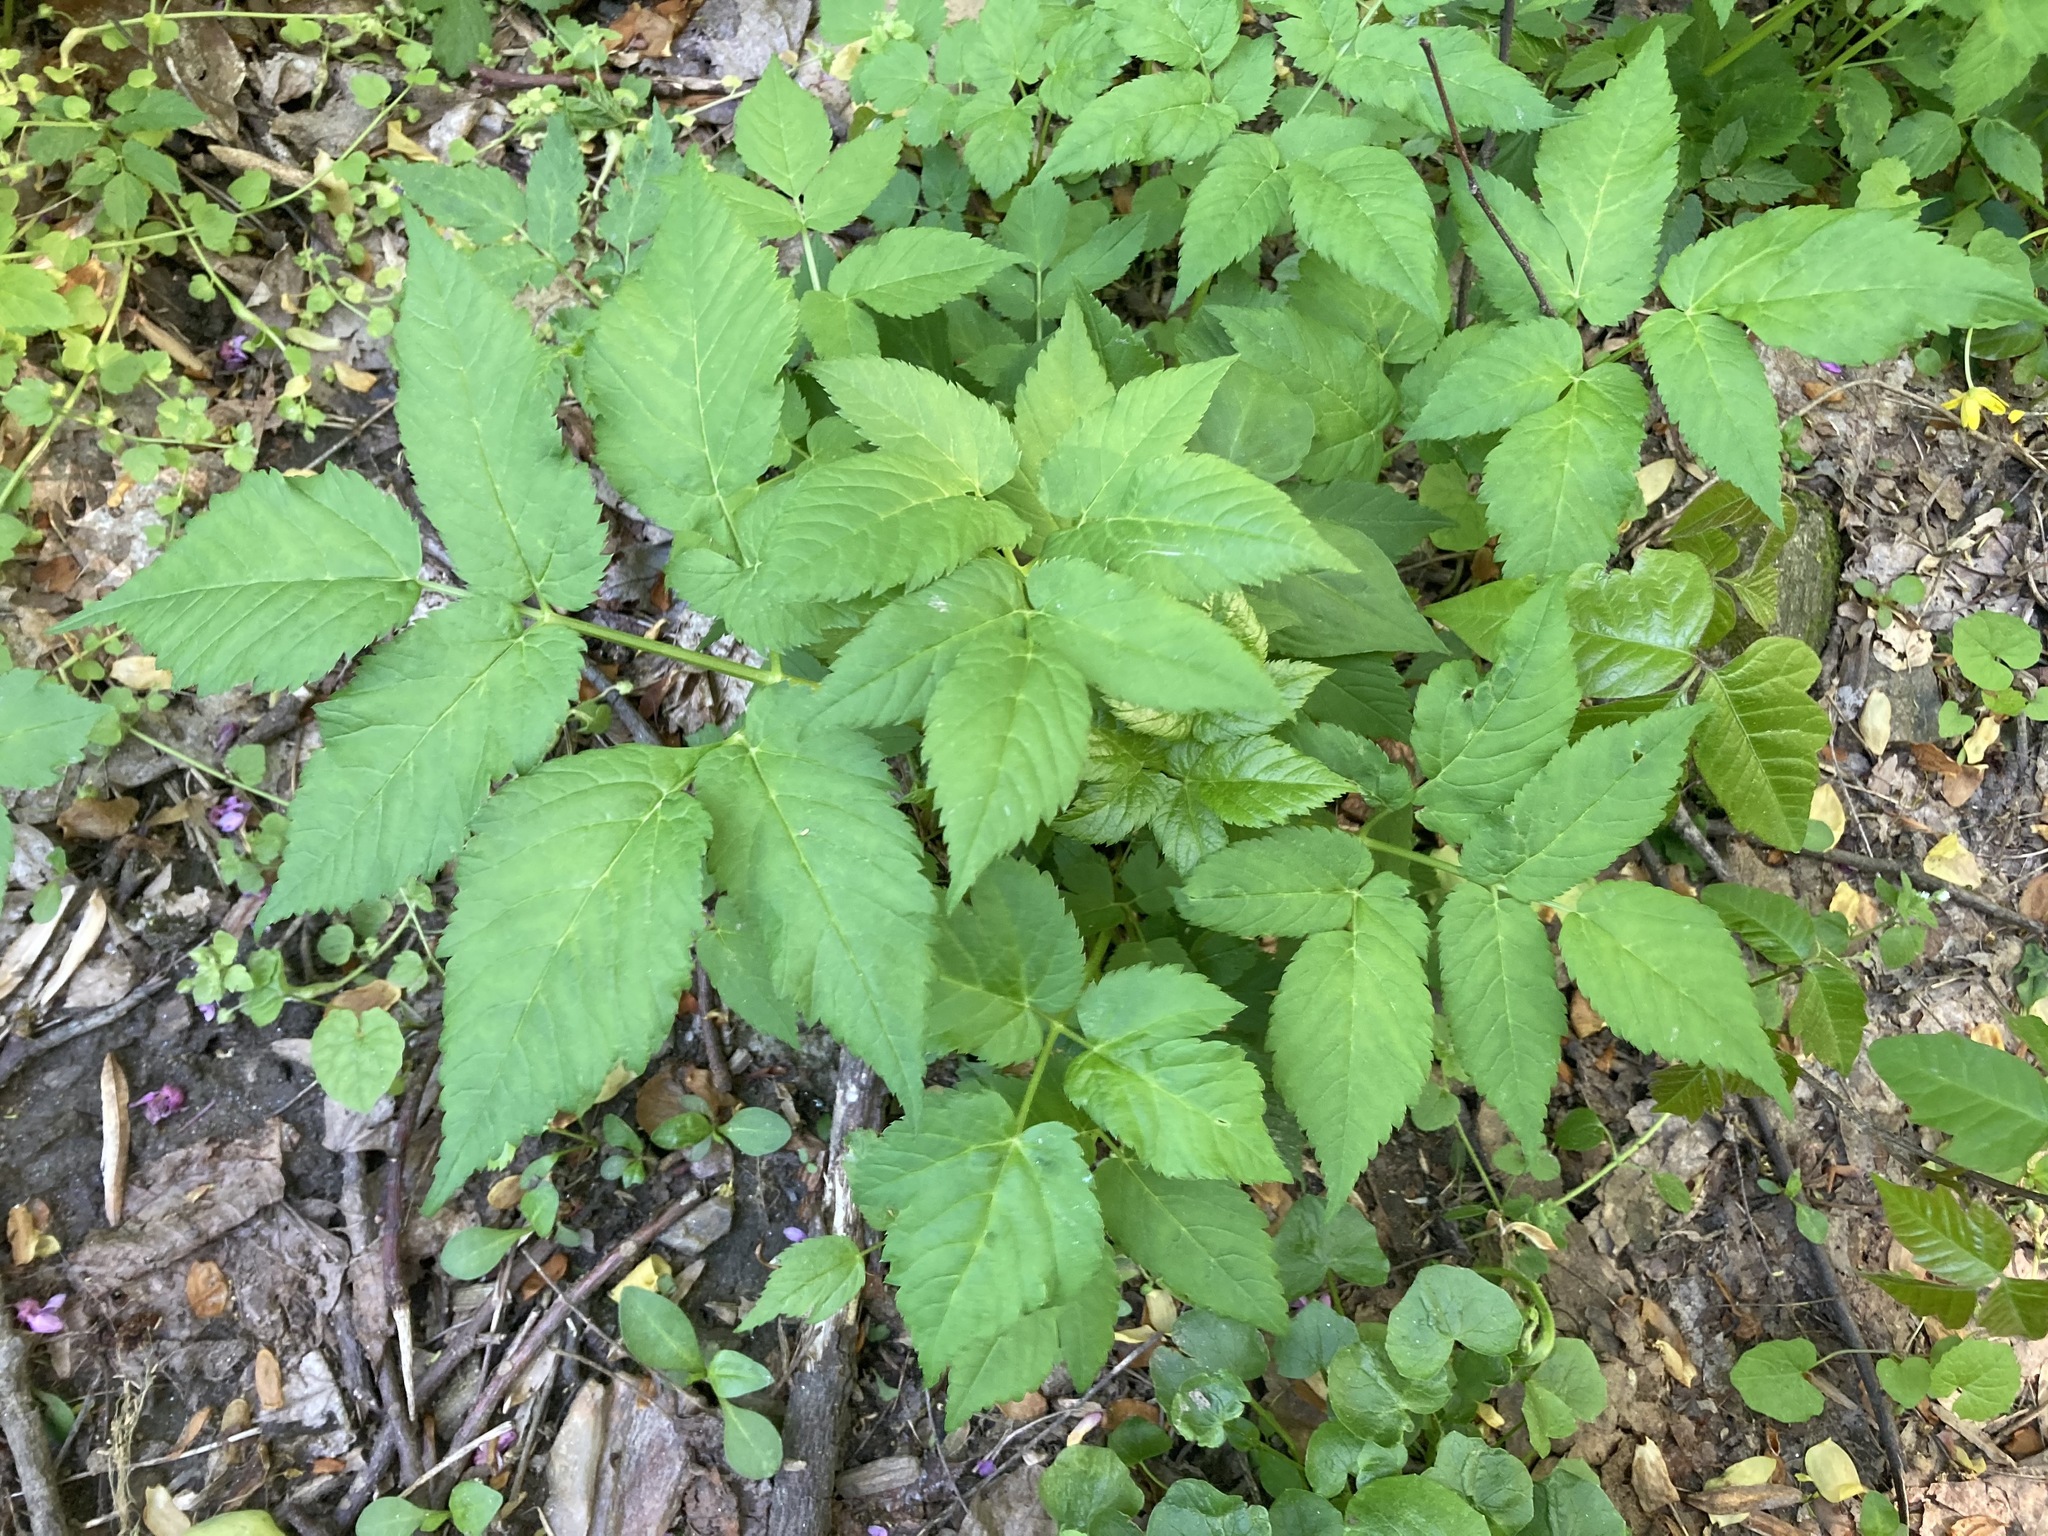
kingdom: Plantae
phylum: Tracheophyta
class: Magnoliopsida
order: Apiales
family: Apiaceae
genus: Aegopodium
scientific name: Aegopodium podagraria
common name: Ground-elder
